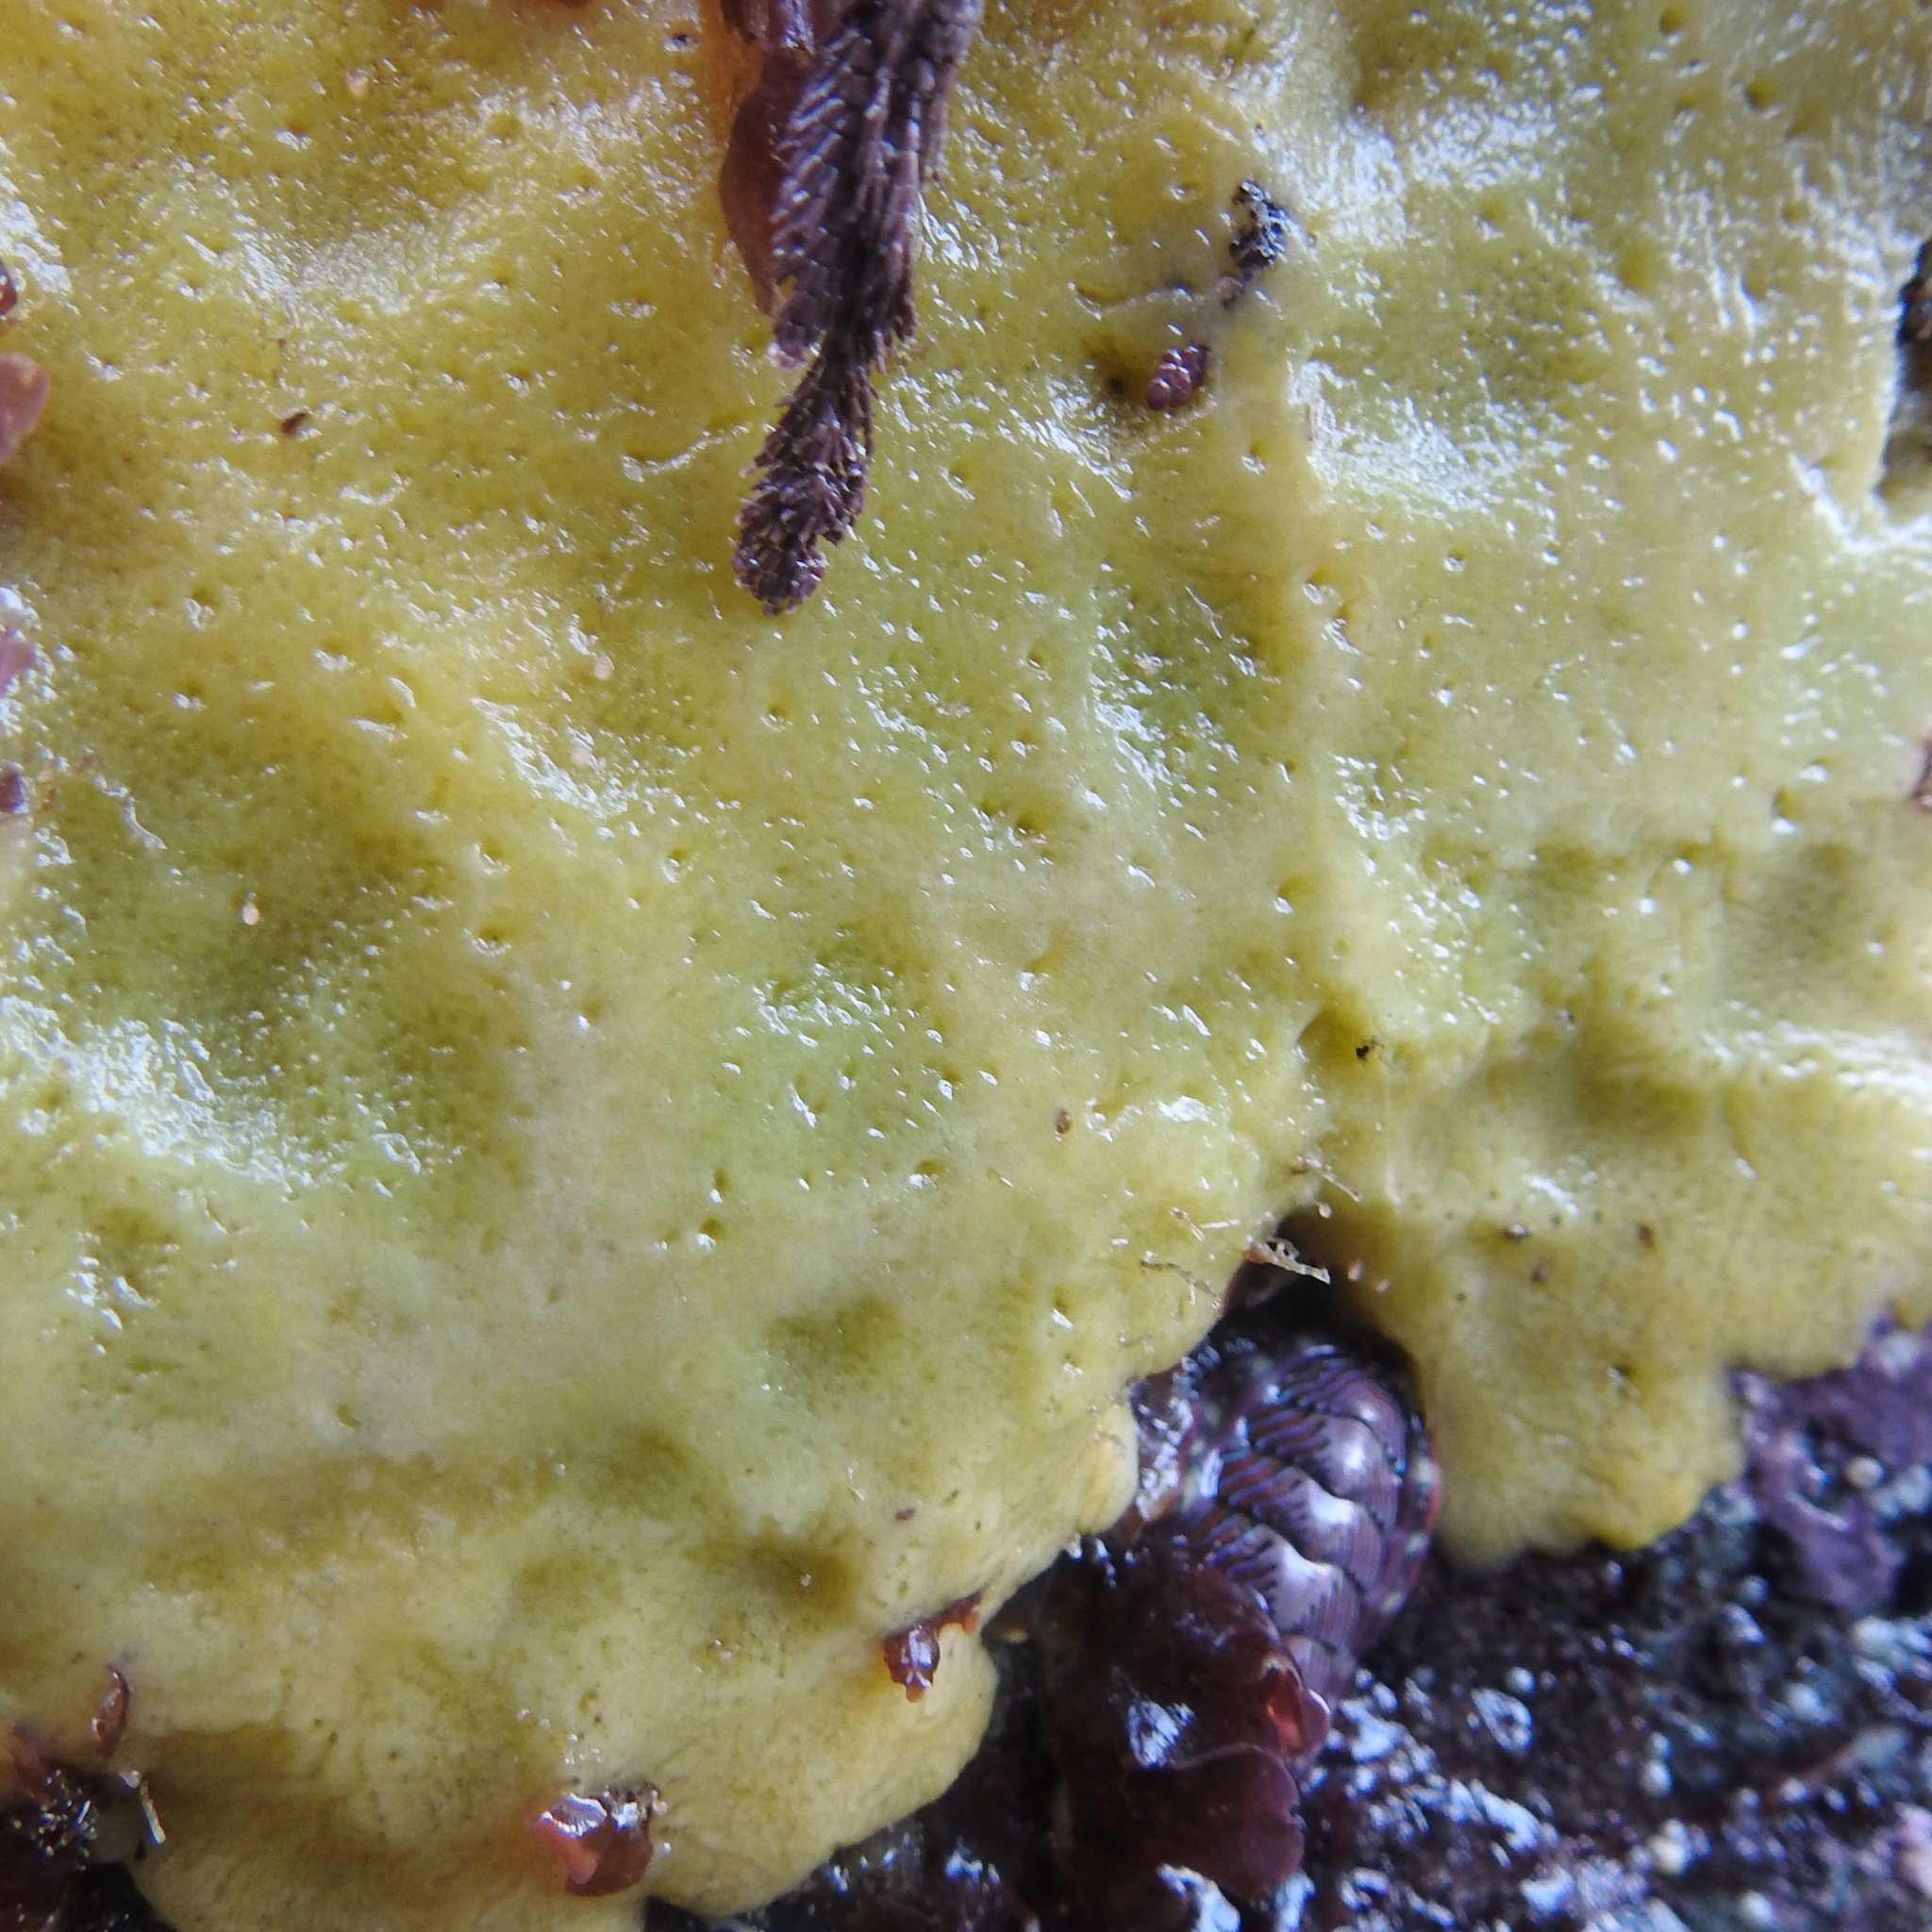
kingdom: Animalia
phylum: Mollusca
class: Polyplacophora
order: Chitonida
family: Tonicellidae
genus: Tonicella
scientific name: Tonicella lineata
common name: Lined chiton
